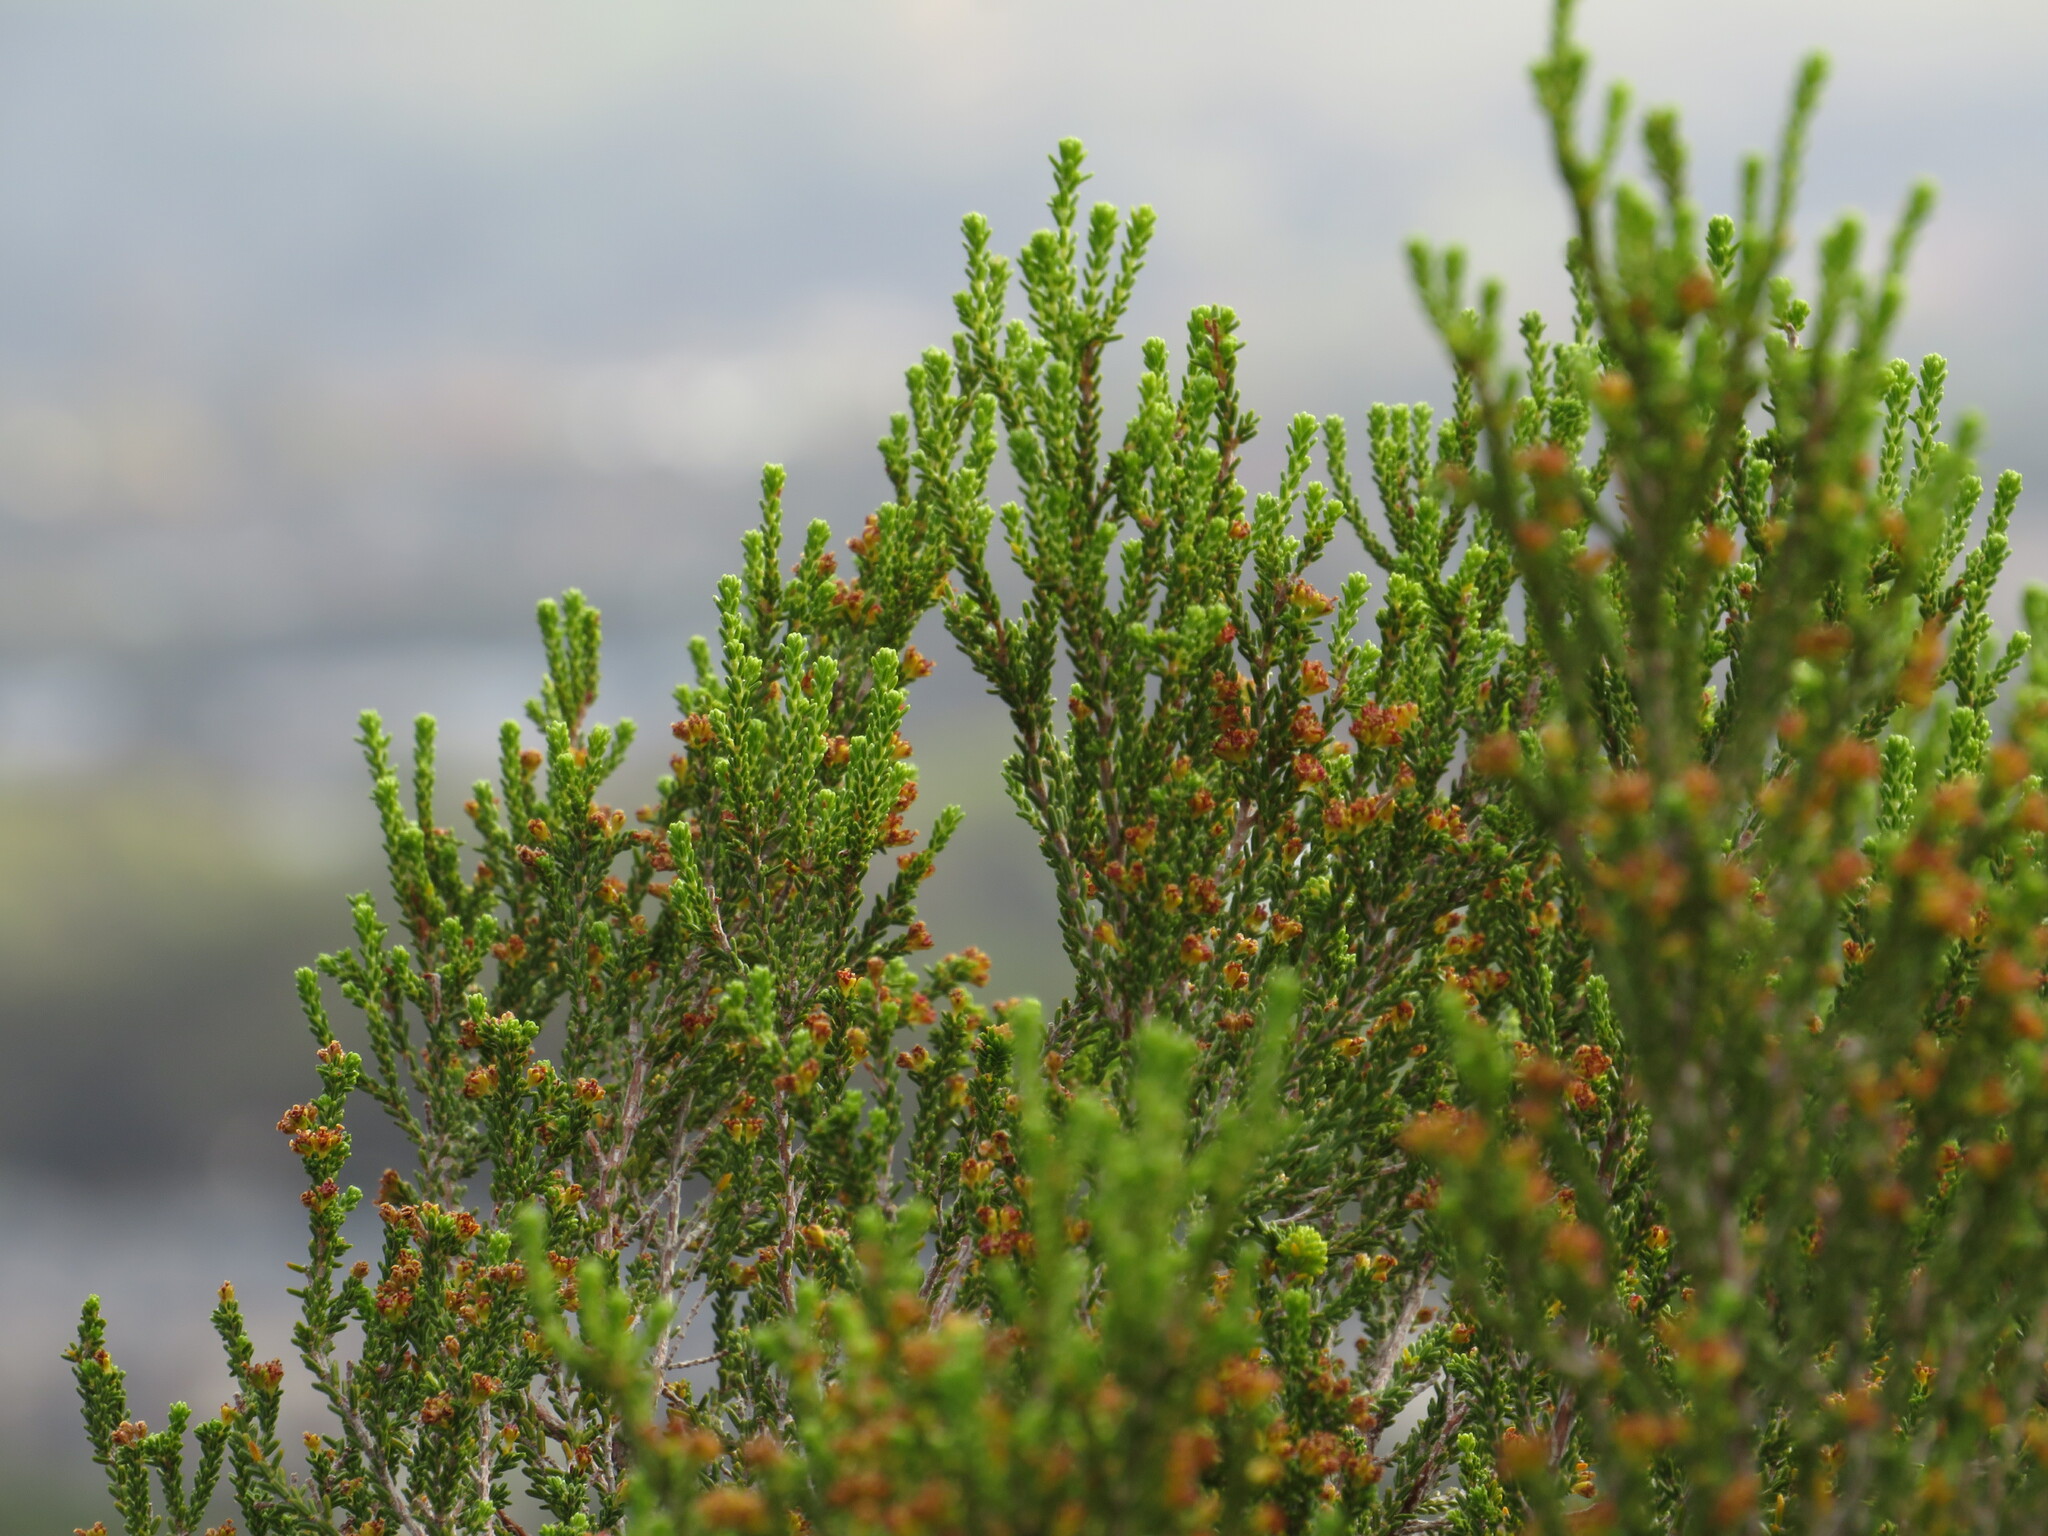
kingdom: Plantae
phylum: Tracheophyta
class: Magnoliopsida
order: Ericales
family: Ericaceae
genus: Erica
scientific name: Erica tristis
